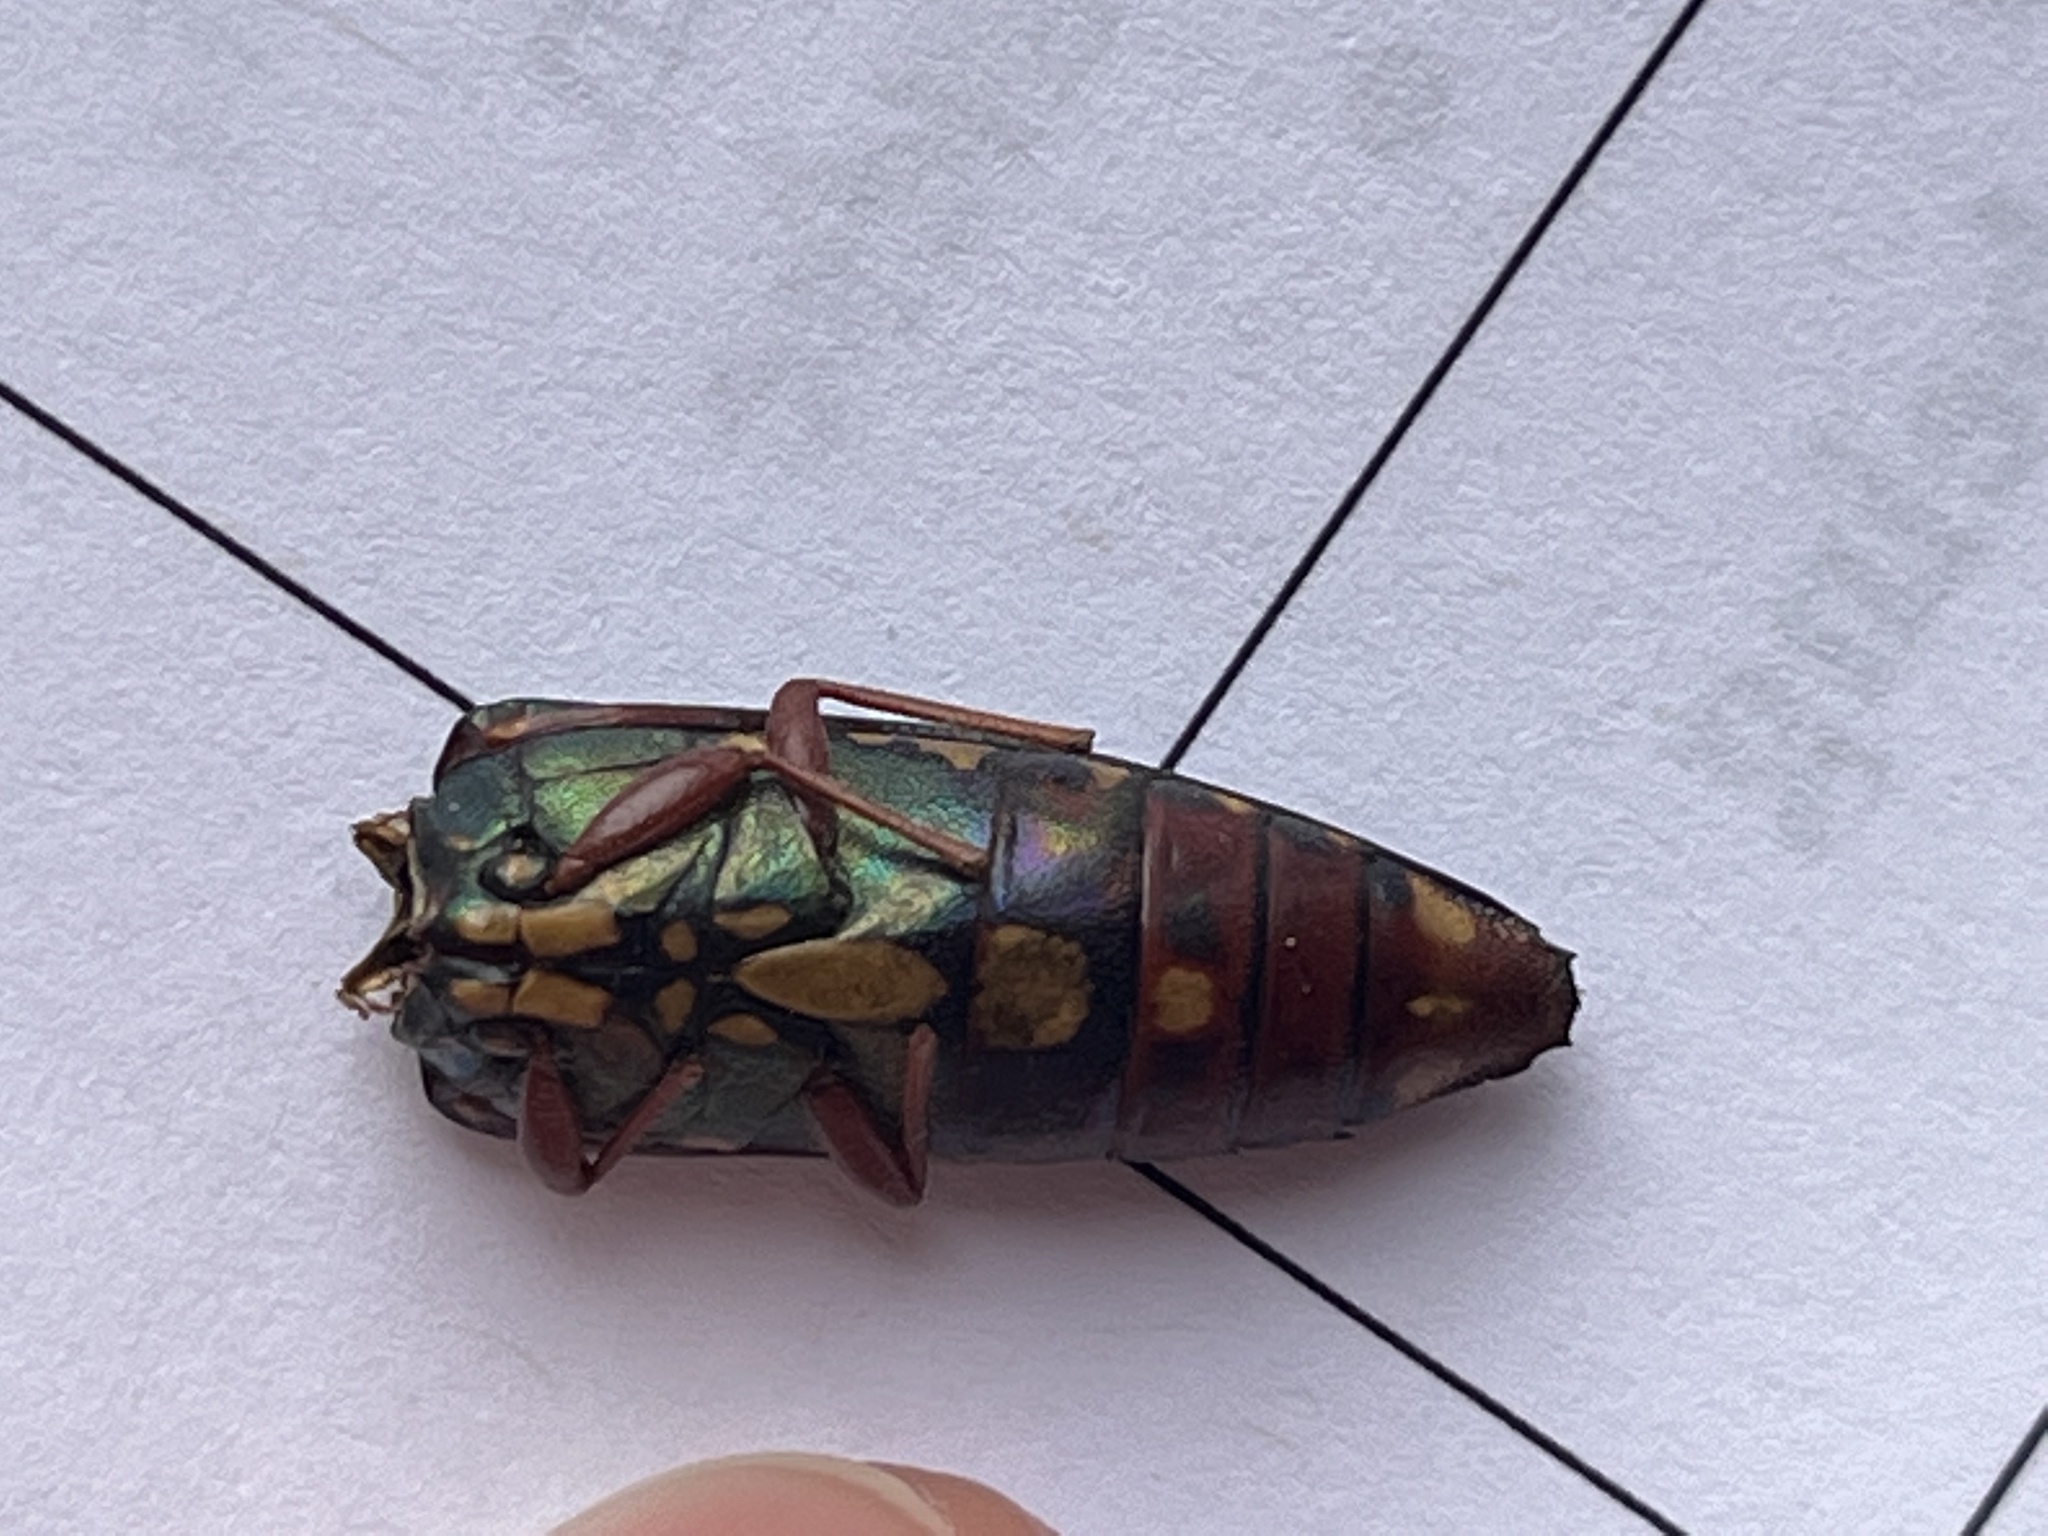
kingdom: Animalia
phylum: Arthropoda
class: Insecta
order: Coleoptera
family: Buprestidae
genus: Buprestis
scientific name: Buprestis rufipes
